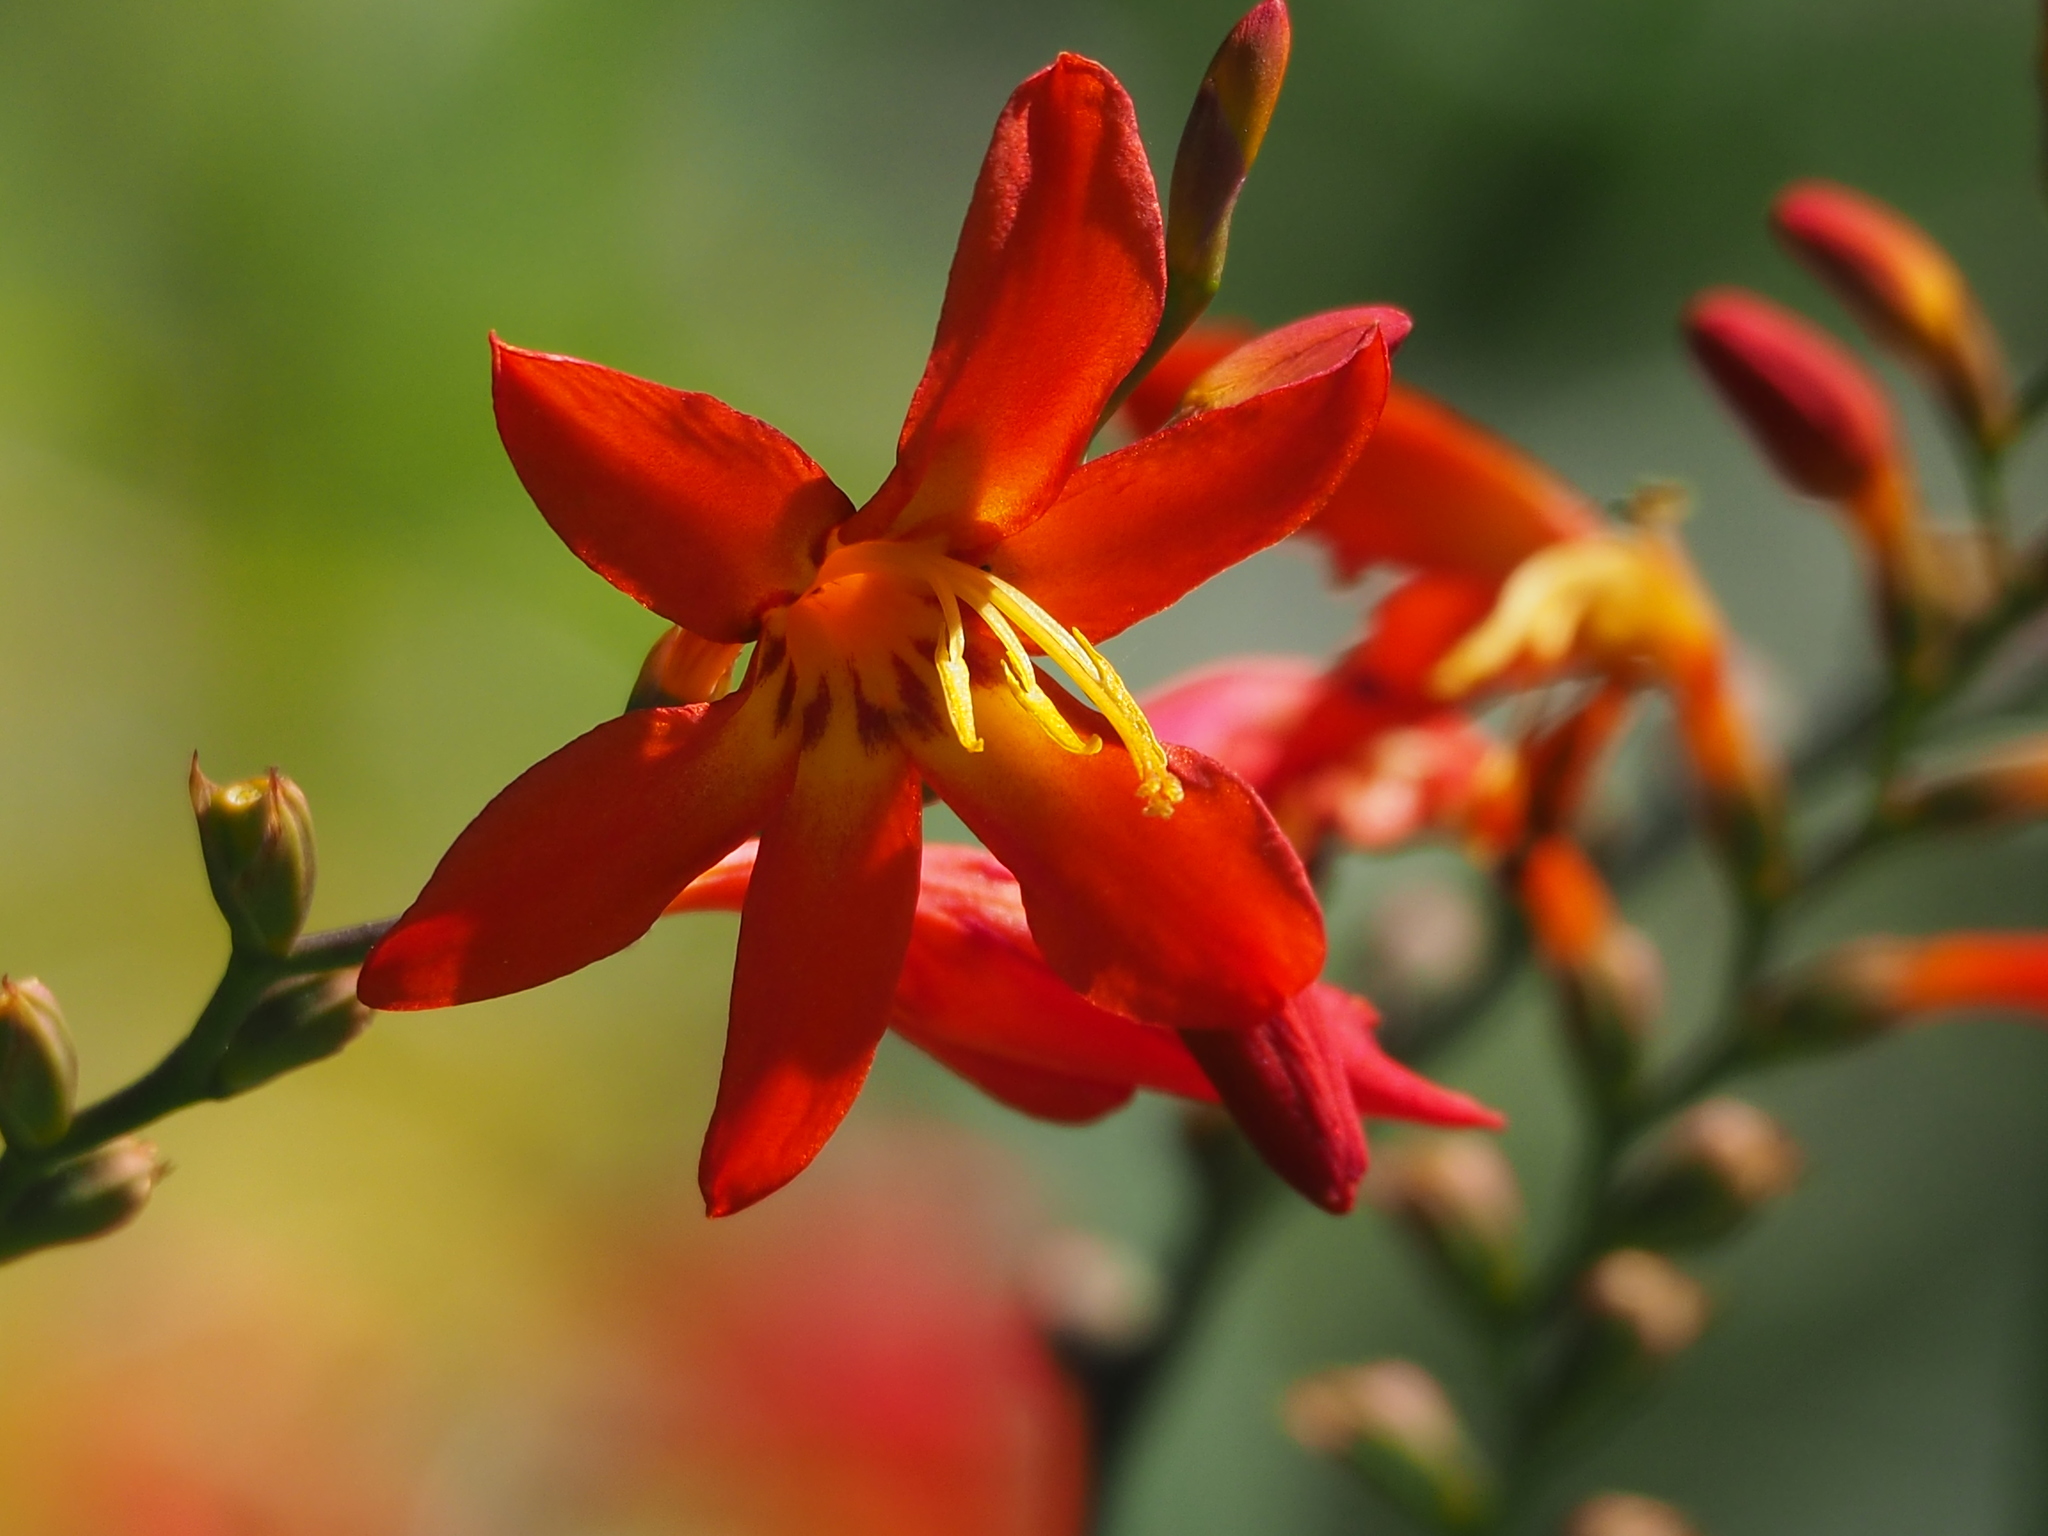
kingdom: Plantae
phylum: Tracheophyta
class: Liliopsida
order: Asparagales
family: Iridaceae
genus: Crocosmia
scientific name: Crocosmia crocosmiiflora
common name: Montbretia
